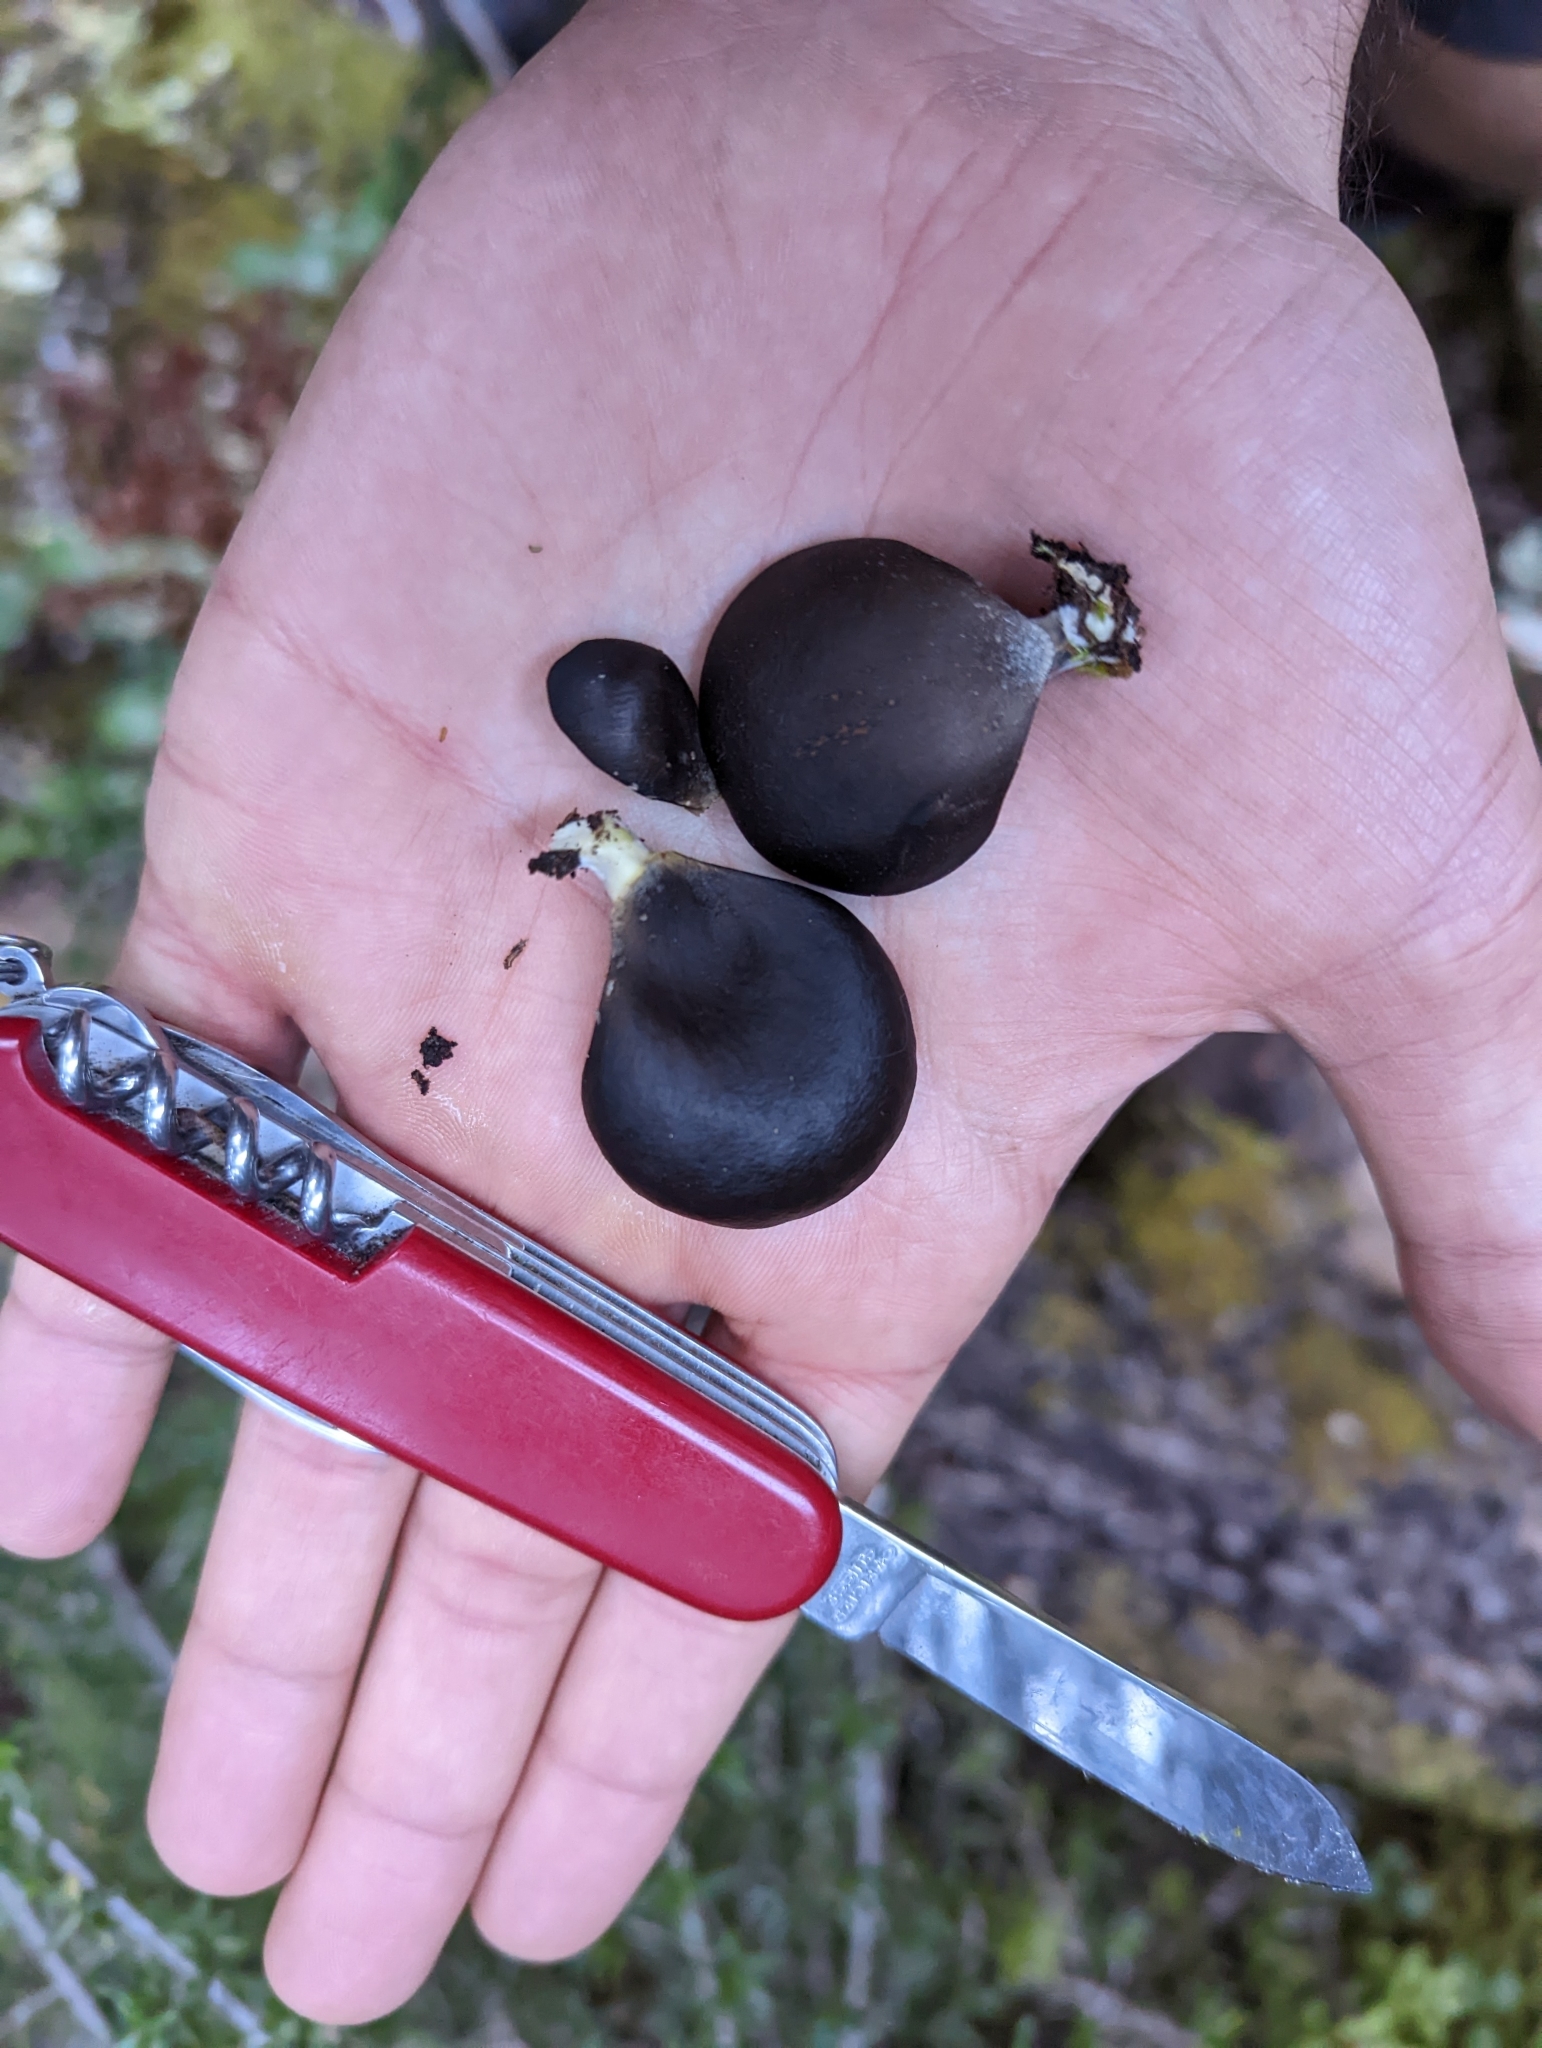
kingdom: Fungi
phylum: Basidiomycota
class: Agaricomycetes
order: Agaricales
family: Pleurotaceae
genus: Pleurotus
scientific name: Pleurotus purpureo-olivaceus
